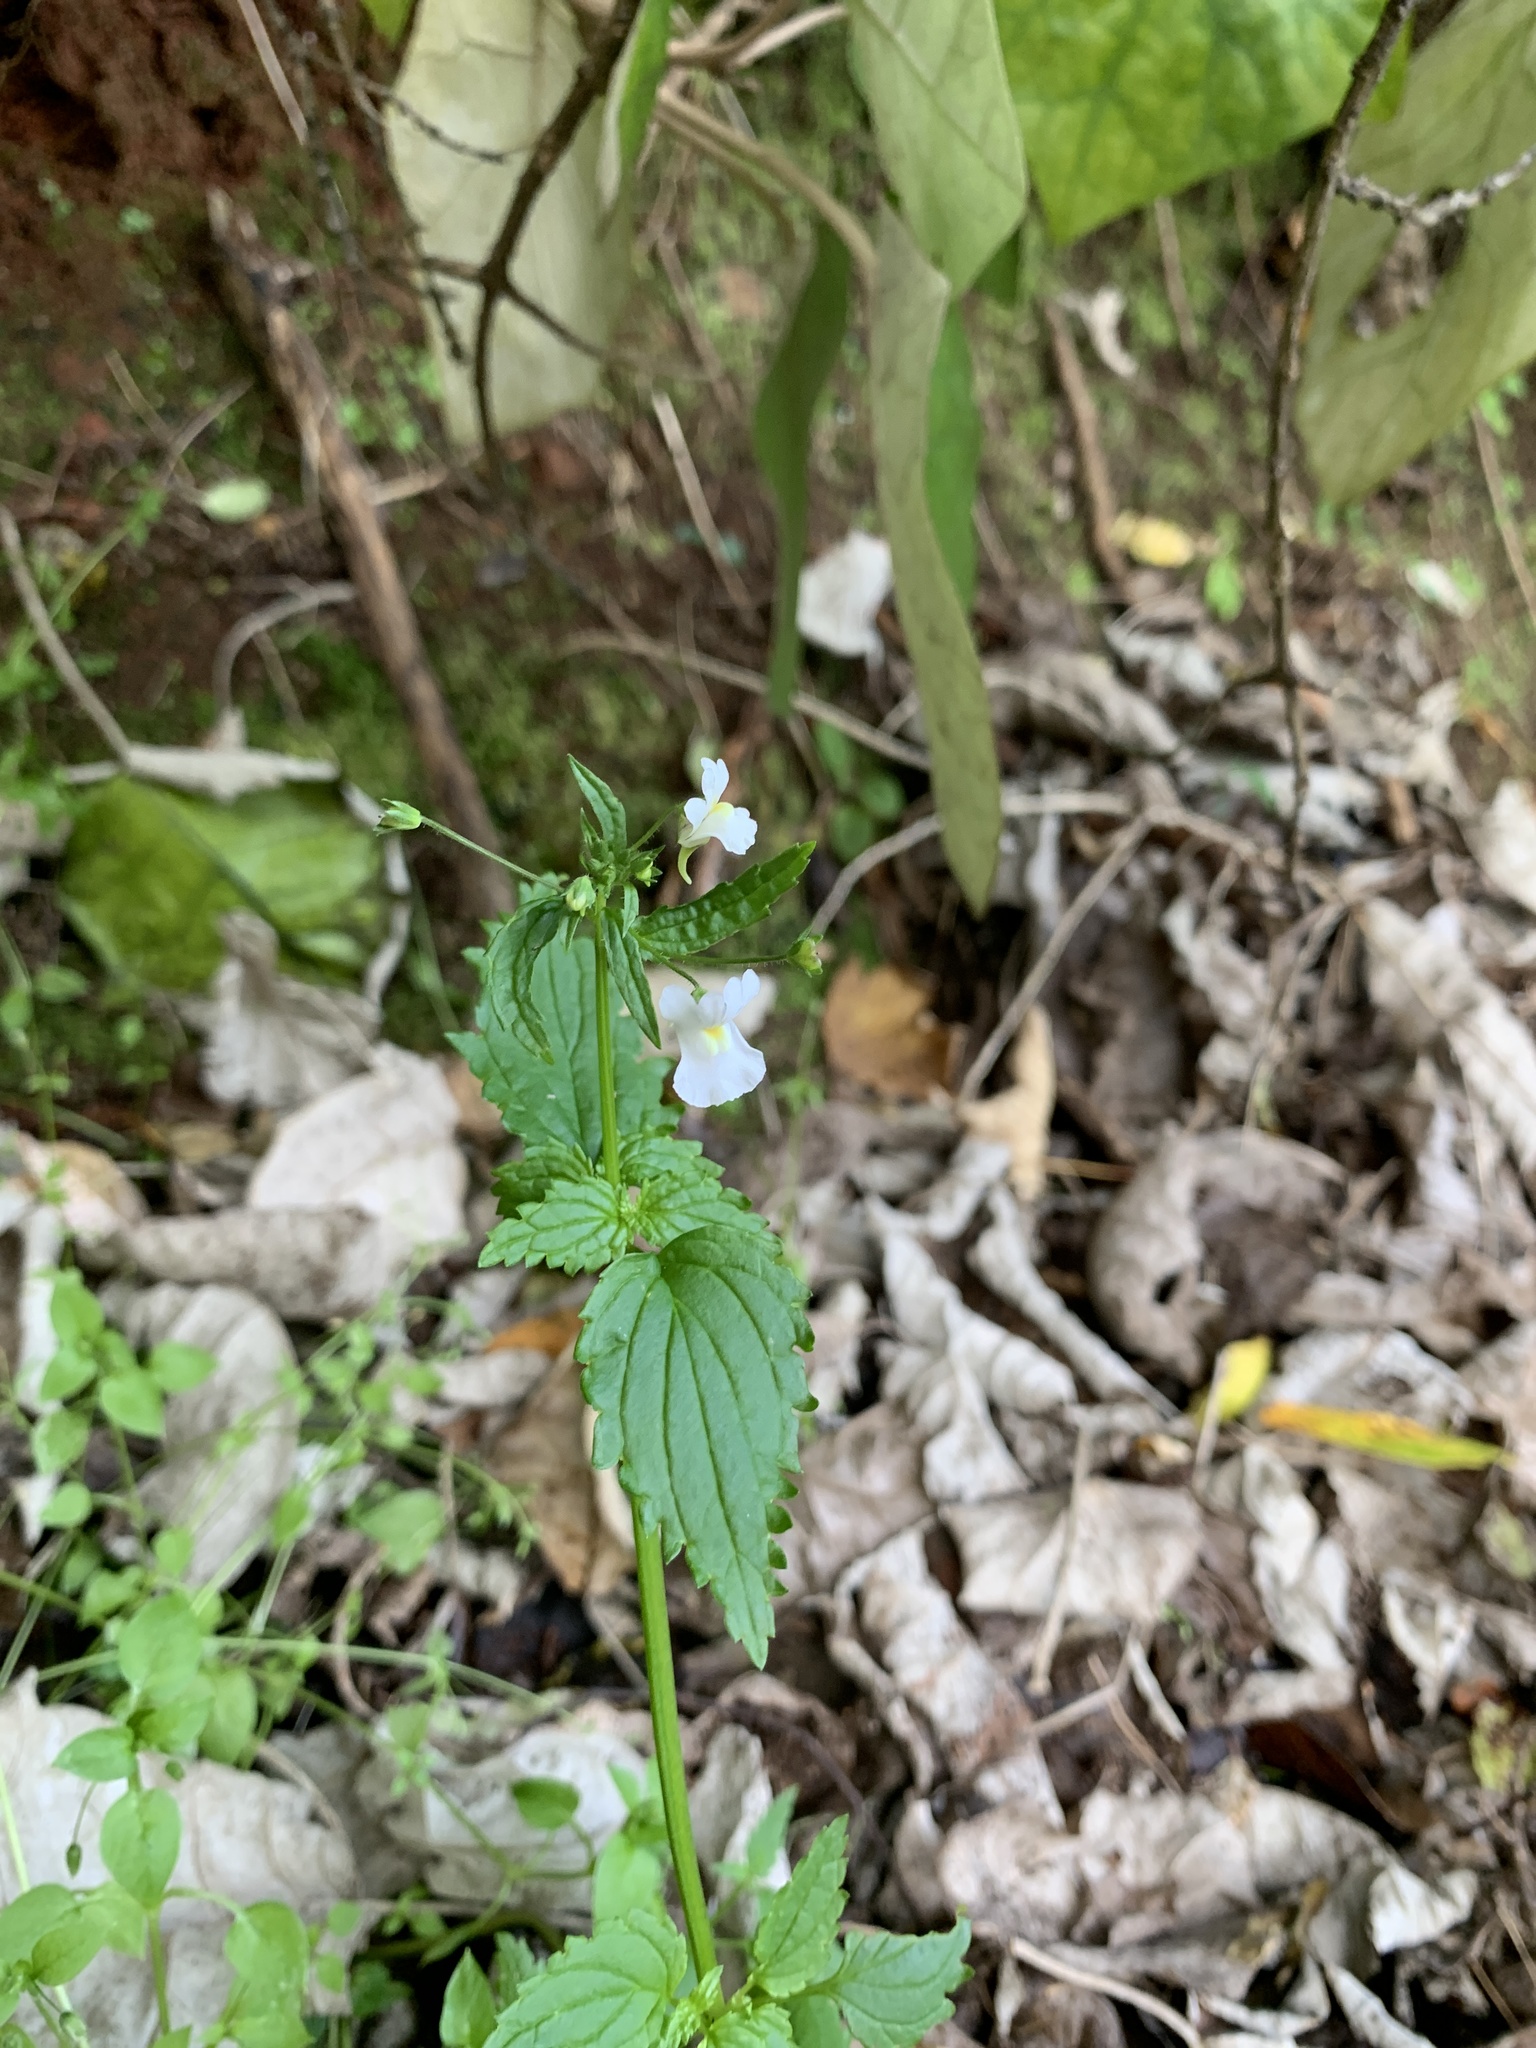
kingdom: Plantae
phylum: Tracheophyta
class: Magnoliopsida
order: Lamiales
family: Scrophulariaceae
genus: Nemesia
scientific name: Nemesia floribunda
